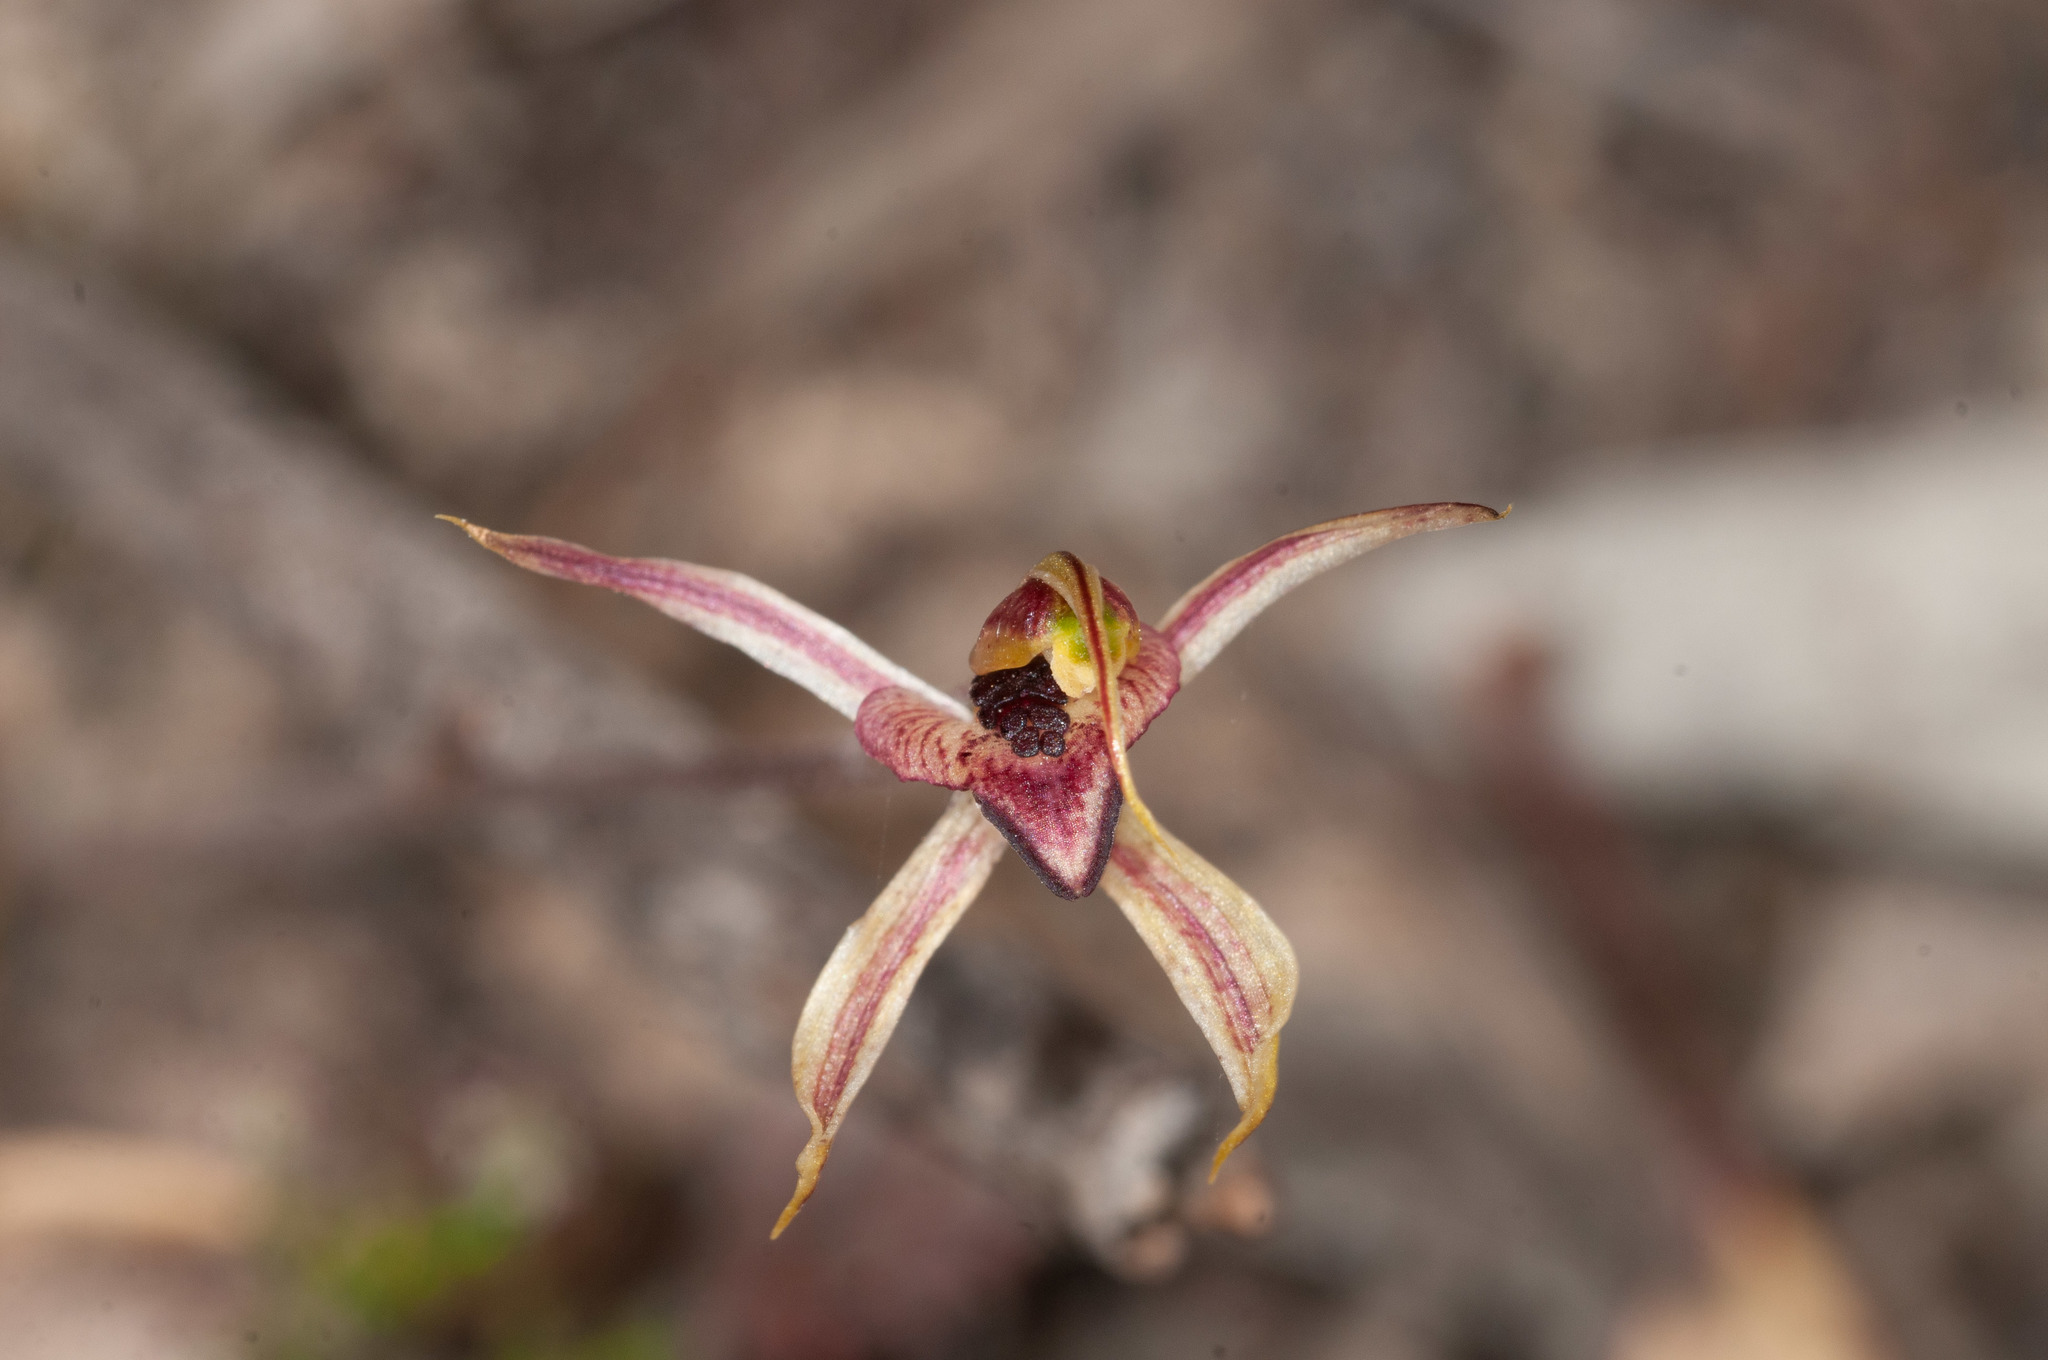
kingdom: Plantae
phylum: Tracheophyta
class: Liliopsida
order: Asparagales
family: Orchidaceae
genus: Caladenia
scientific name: Caladenia cardiochila
